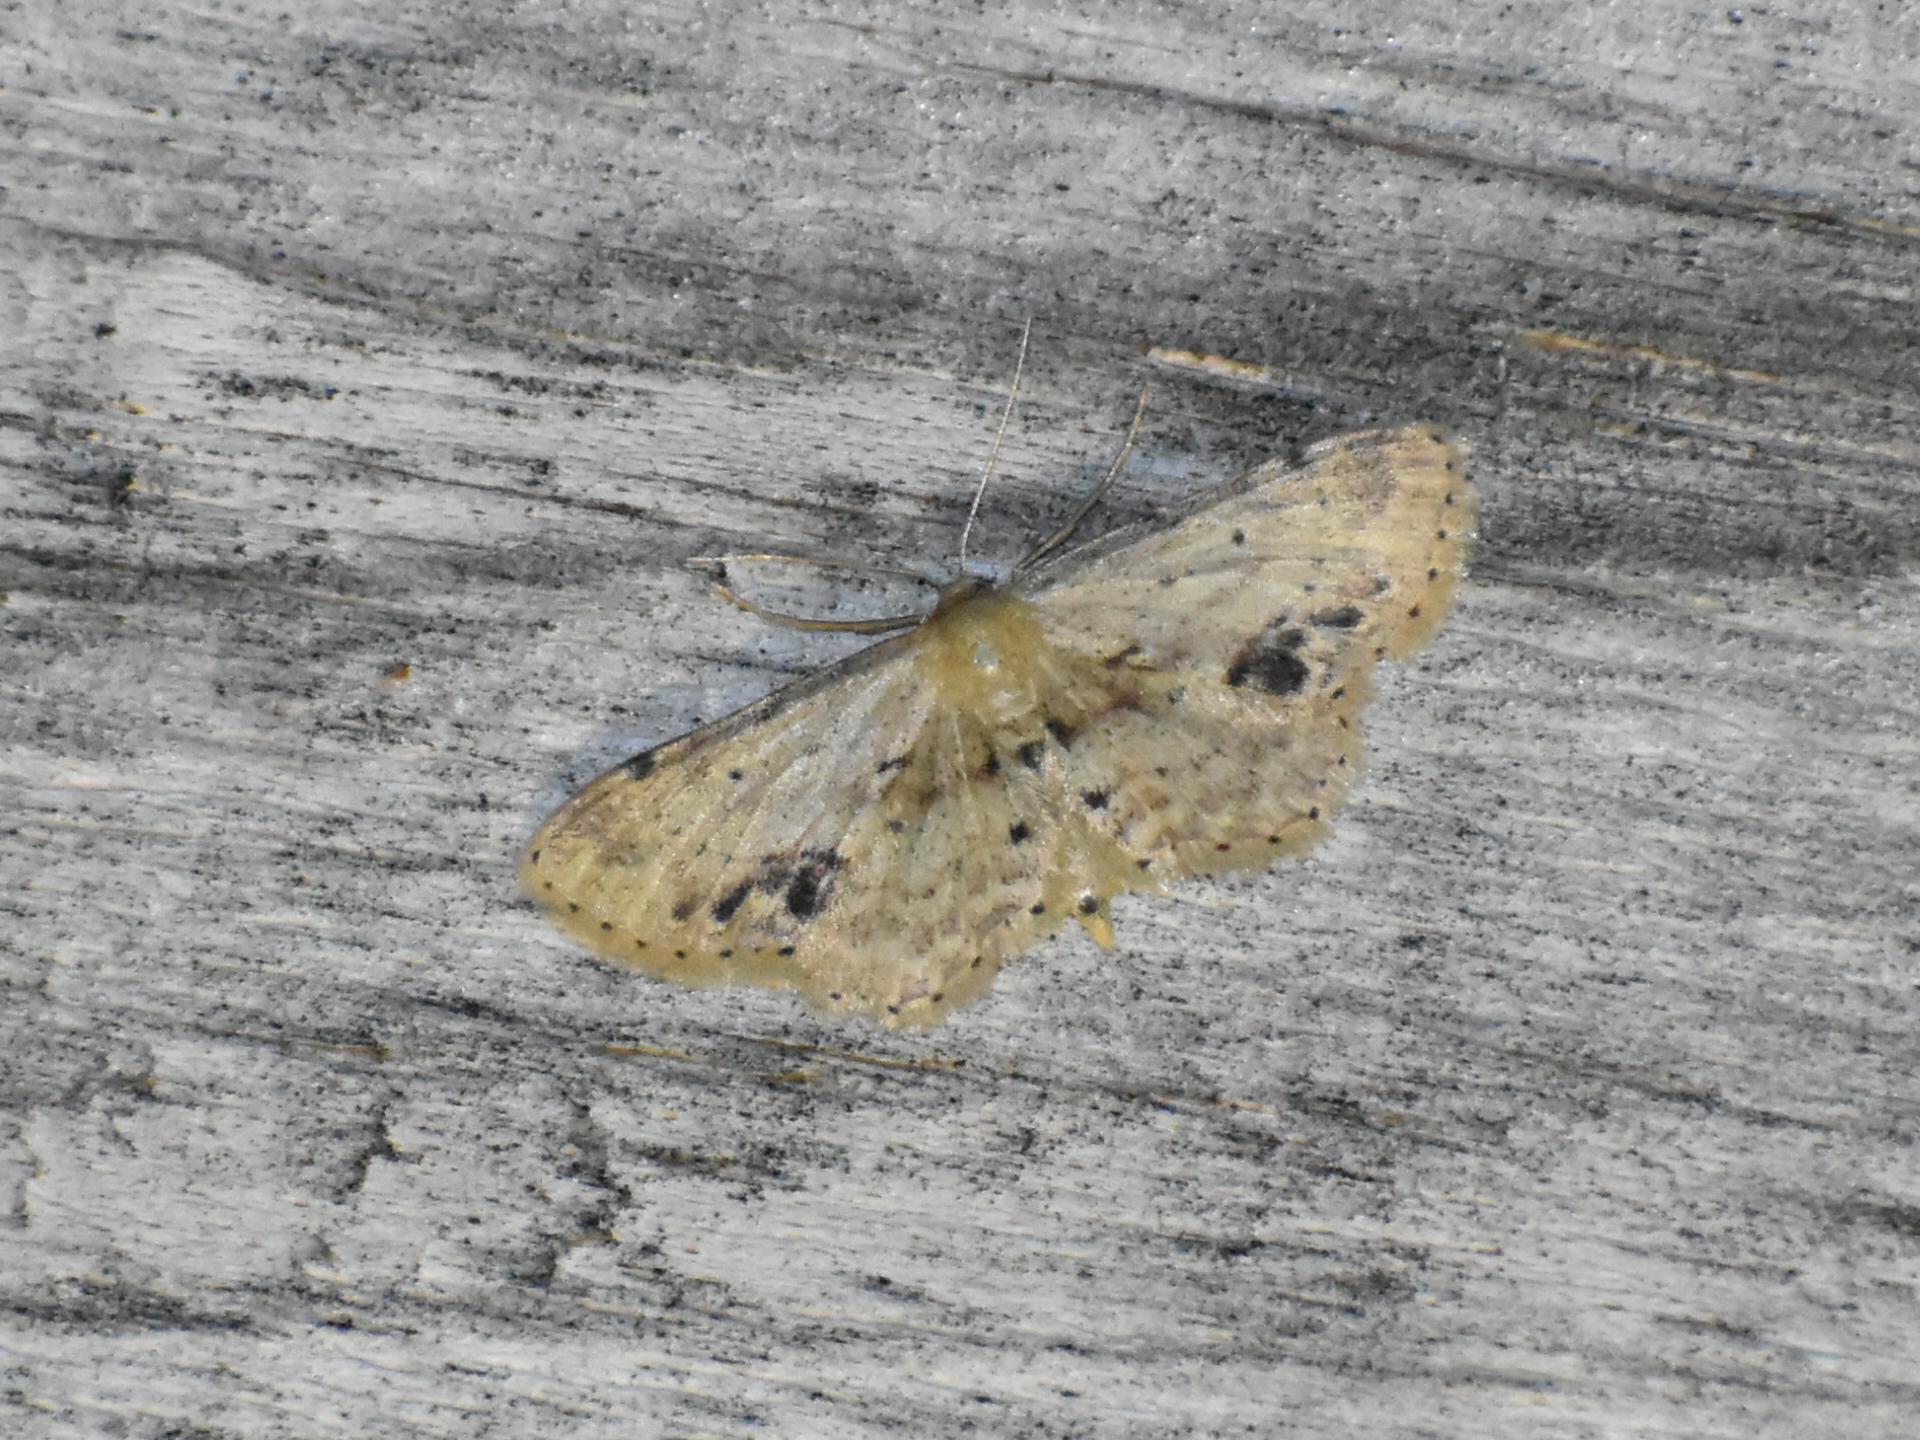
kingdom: Animalia
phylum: Arthropoda
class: Insecta
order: Lepidoptera
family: Geometridae
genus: Idaea
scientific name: Idaea dimidiata
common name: Single-dotted wave
